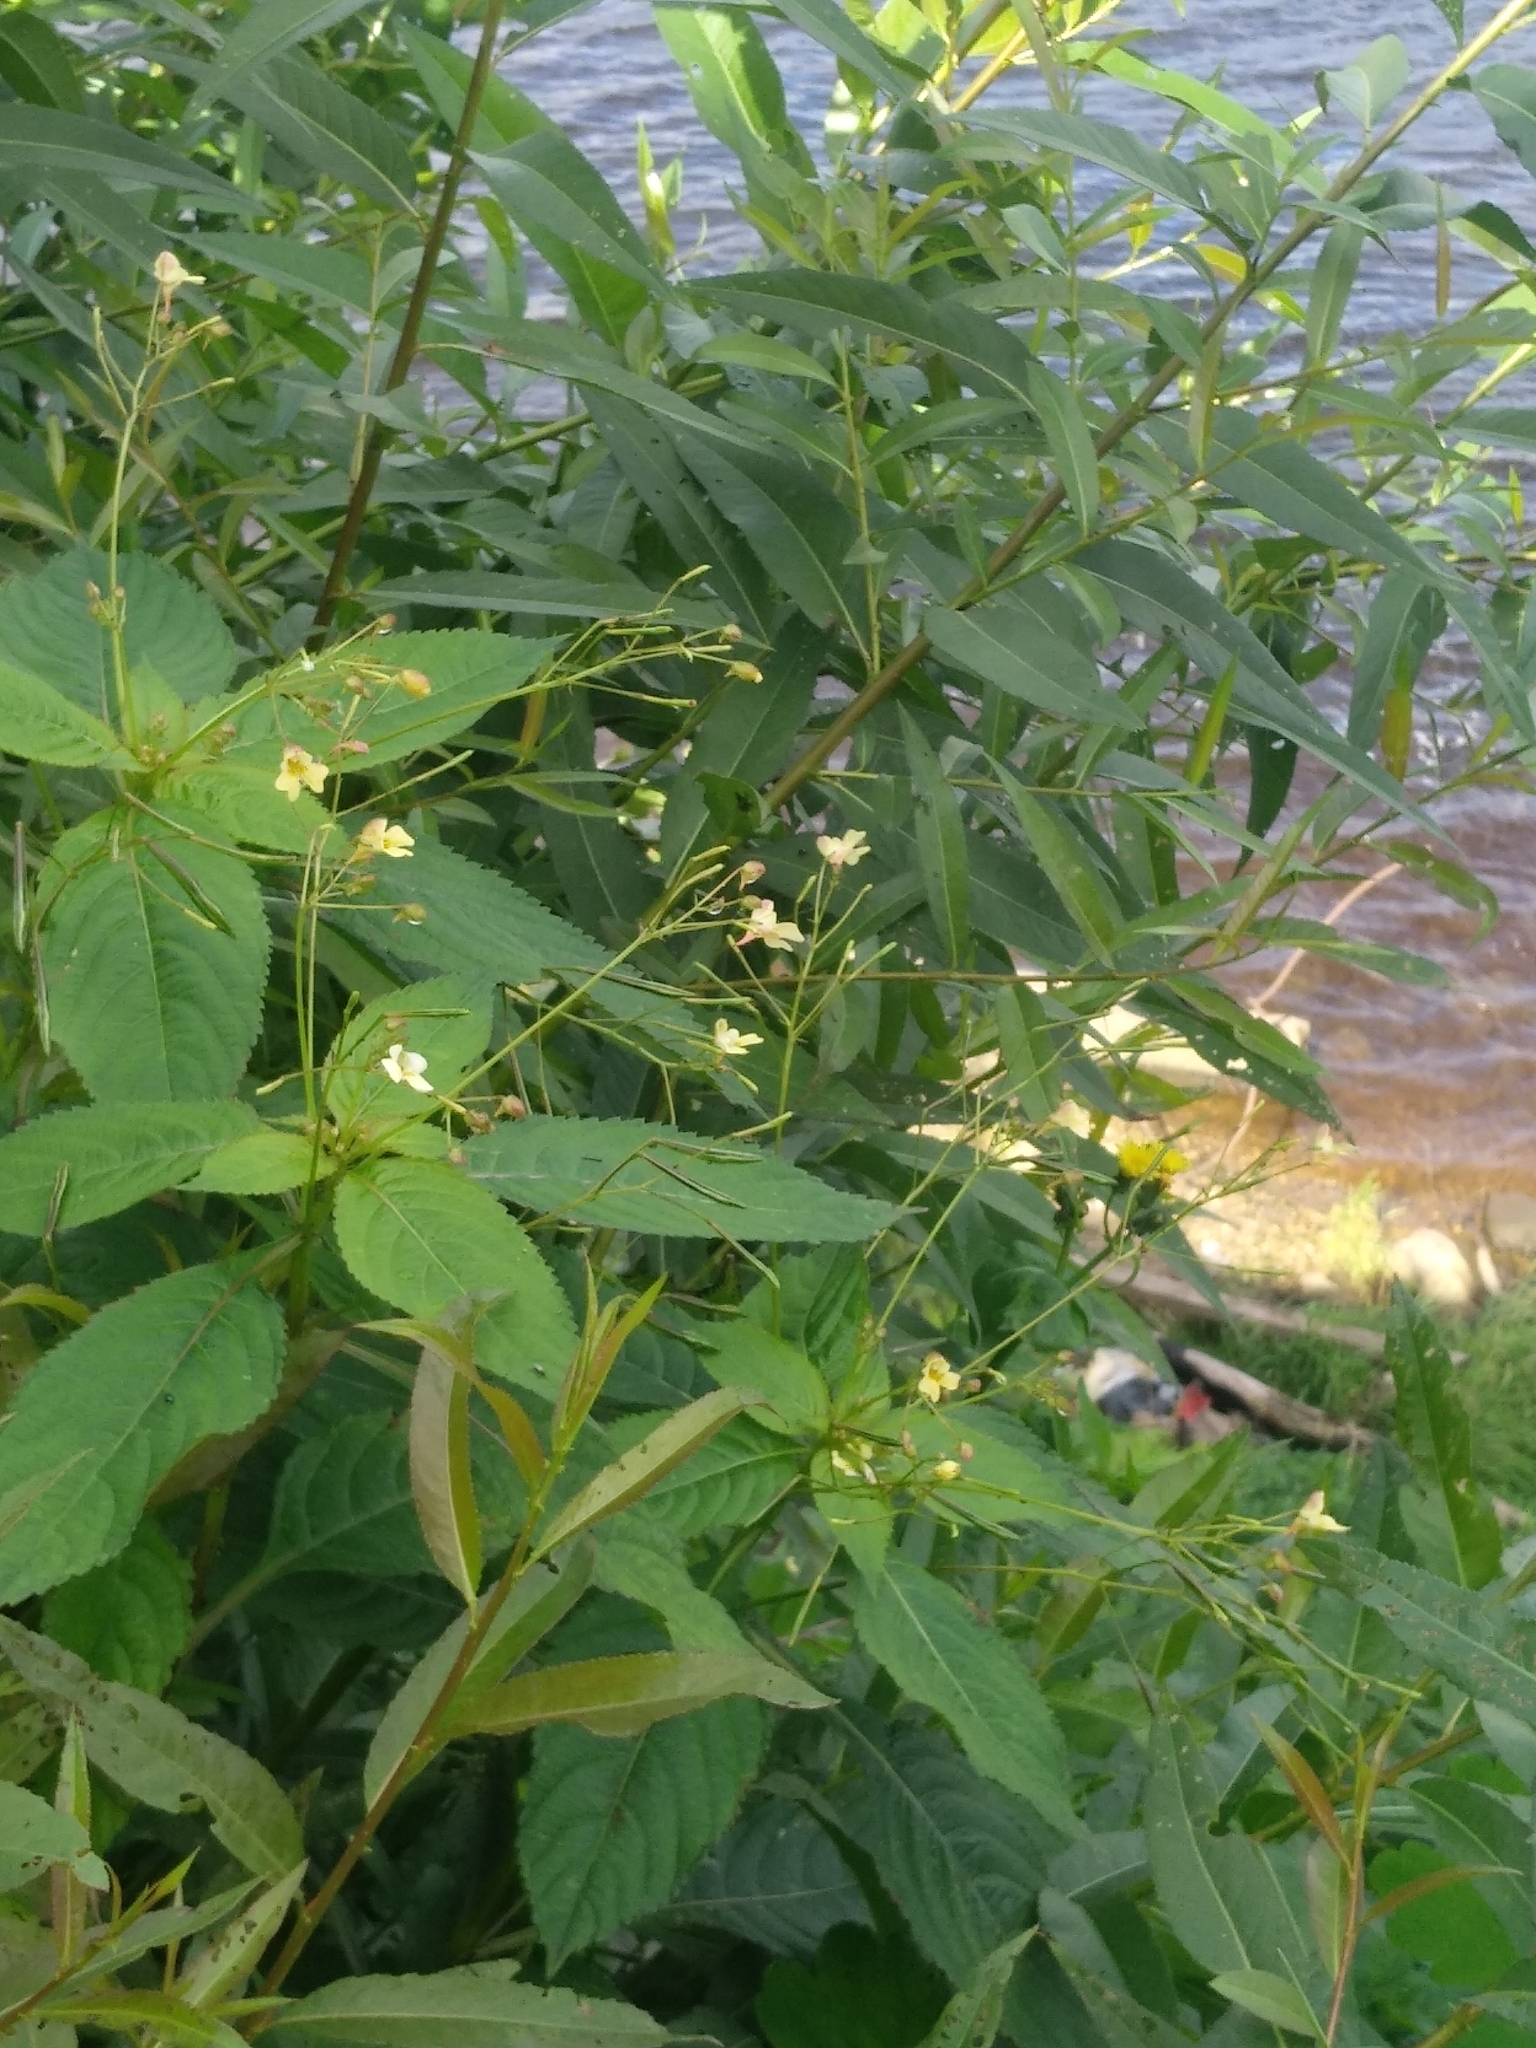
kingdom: Plantae
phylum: Tracheophyta
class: Magnoliopsida
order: Ericales
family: Balsaminaceae
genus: Impatiens
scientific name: Impatiens parviflora
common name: Small balsam
